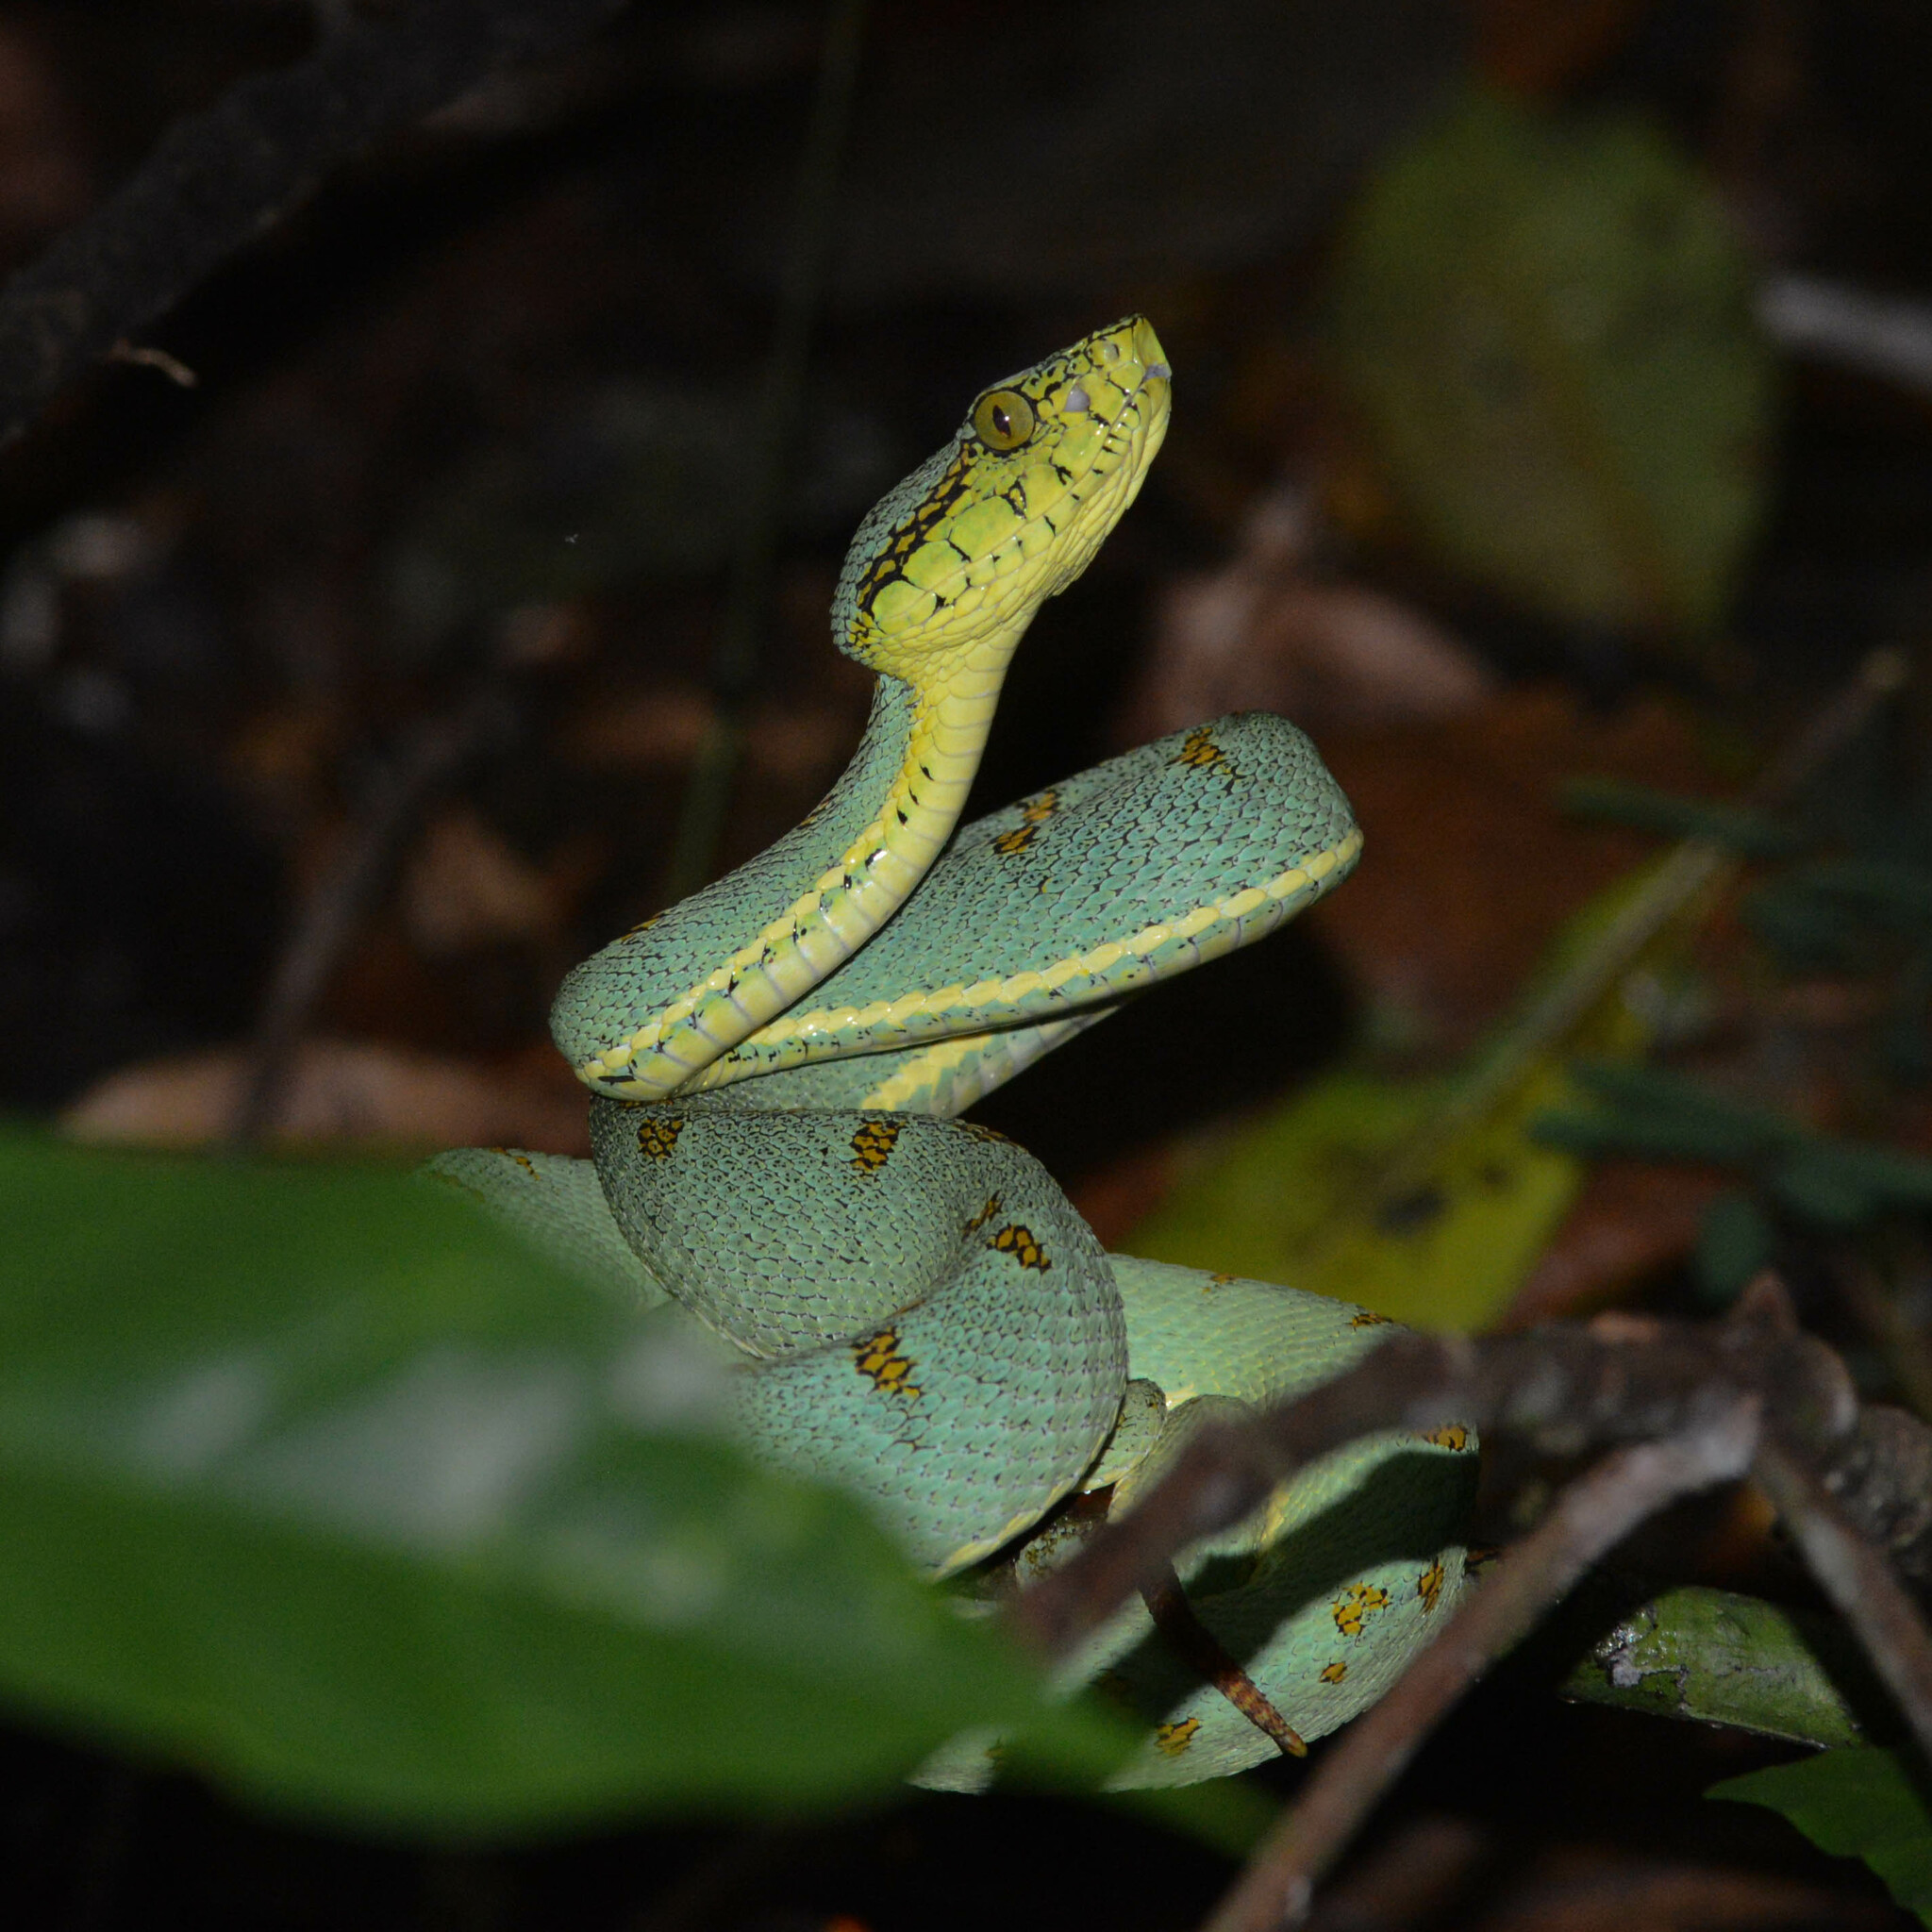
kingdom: Animalia
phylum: Chordata
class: Squamata
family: Viperidae
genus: Bothrops
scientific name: Bothrops bilineatus
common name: Green jararaca
